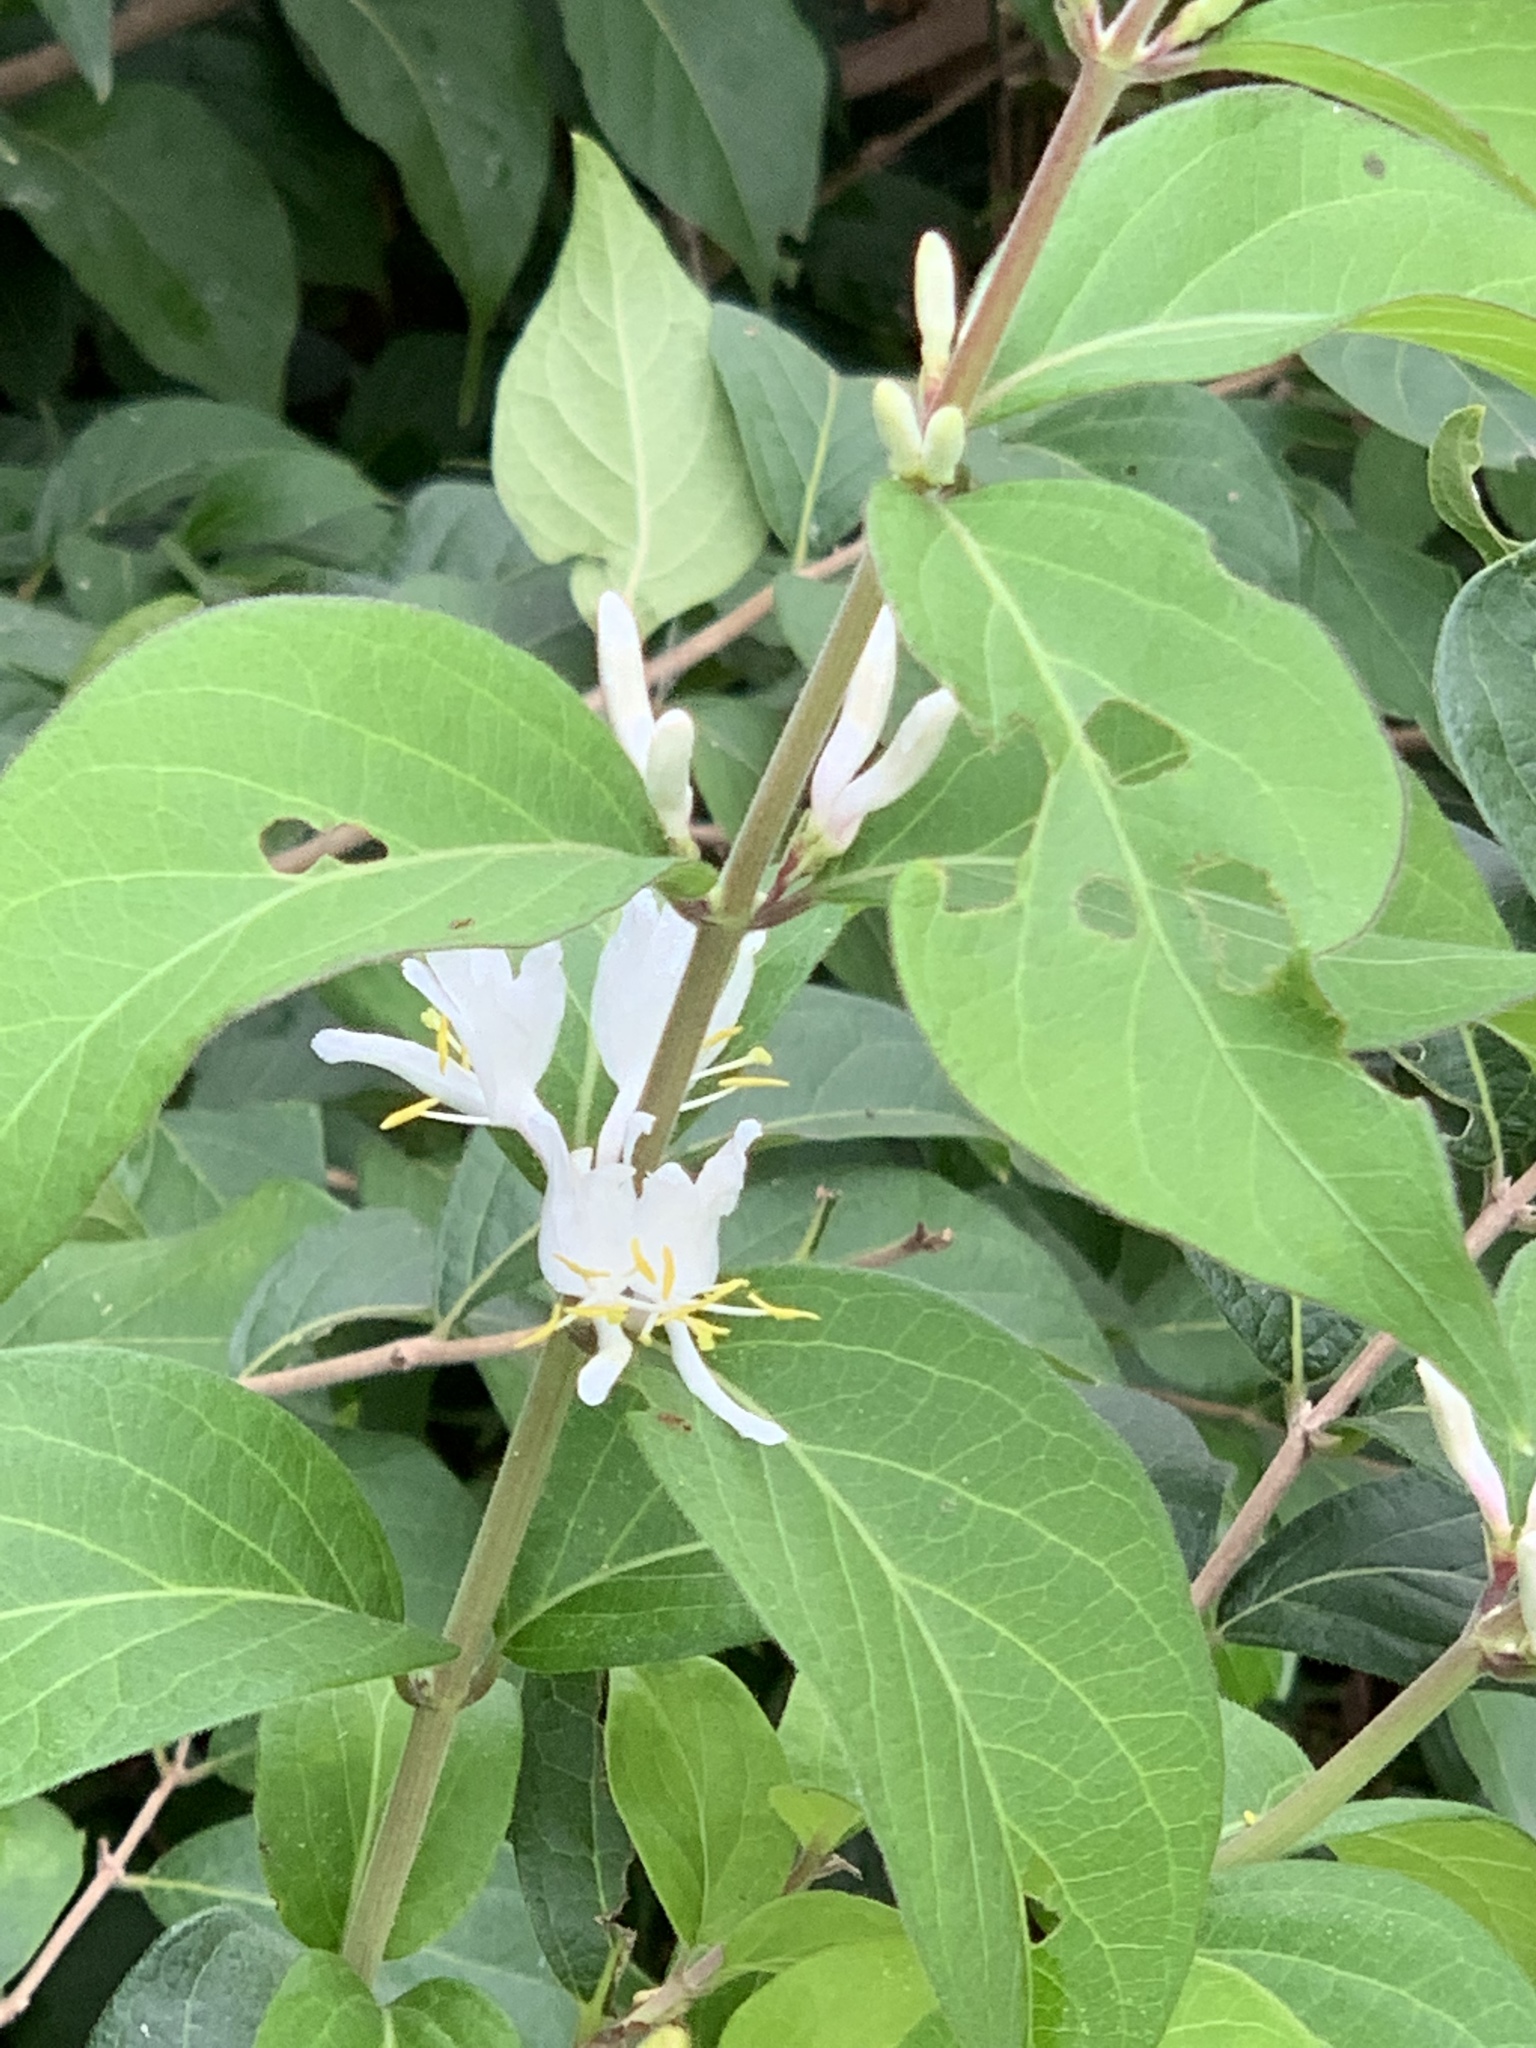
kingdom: Plantae
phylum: Tracheophyta
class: Magnoliopsida
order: Dipsacales
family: Caprifoliaceae
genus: Lonicera
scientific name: Lonicera maackii
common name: Amur honeysuckle
